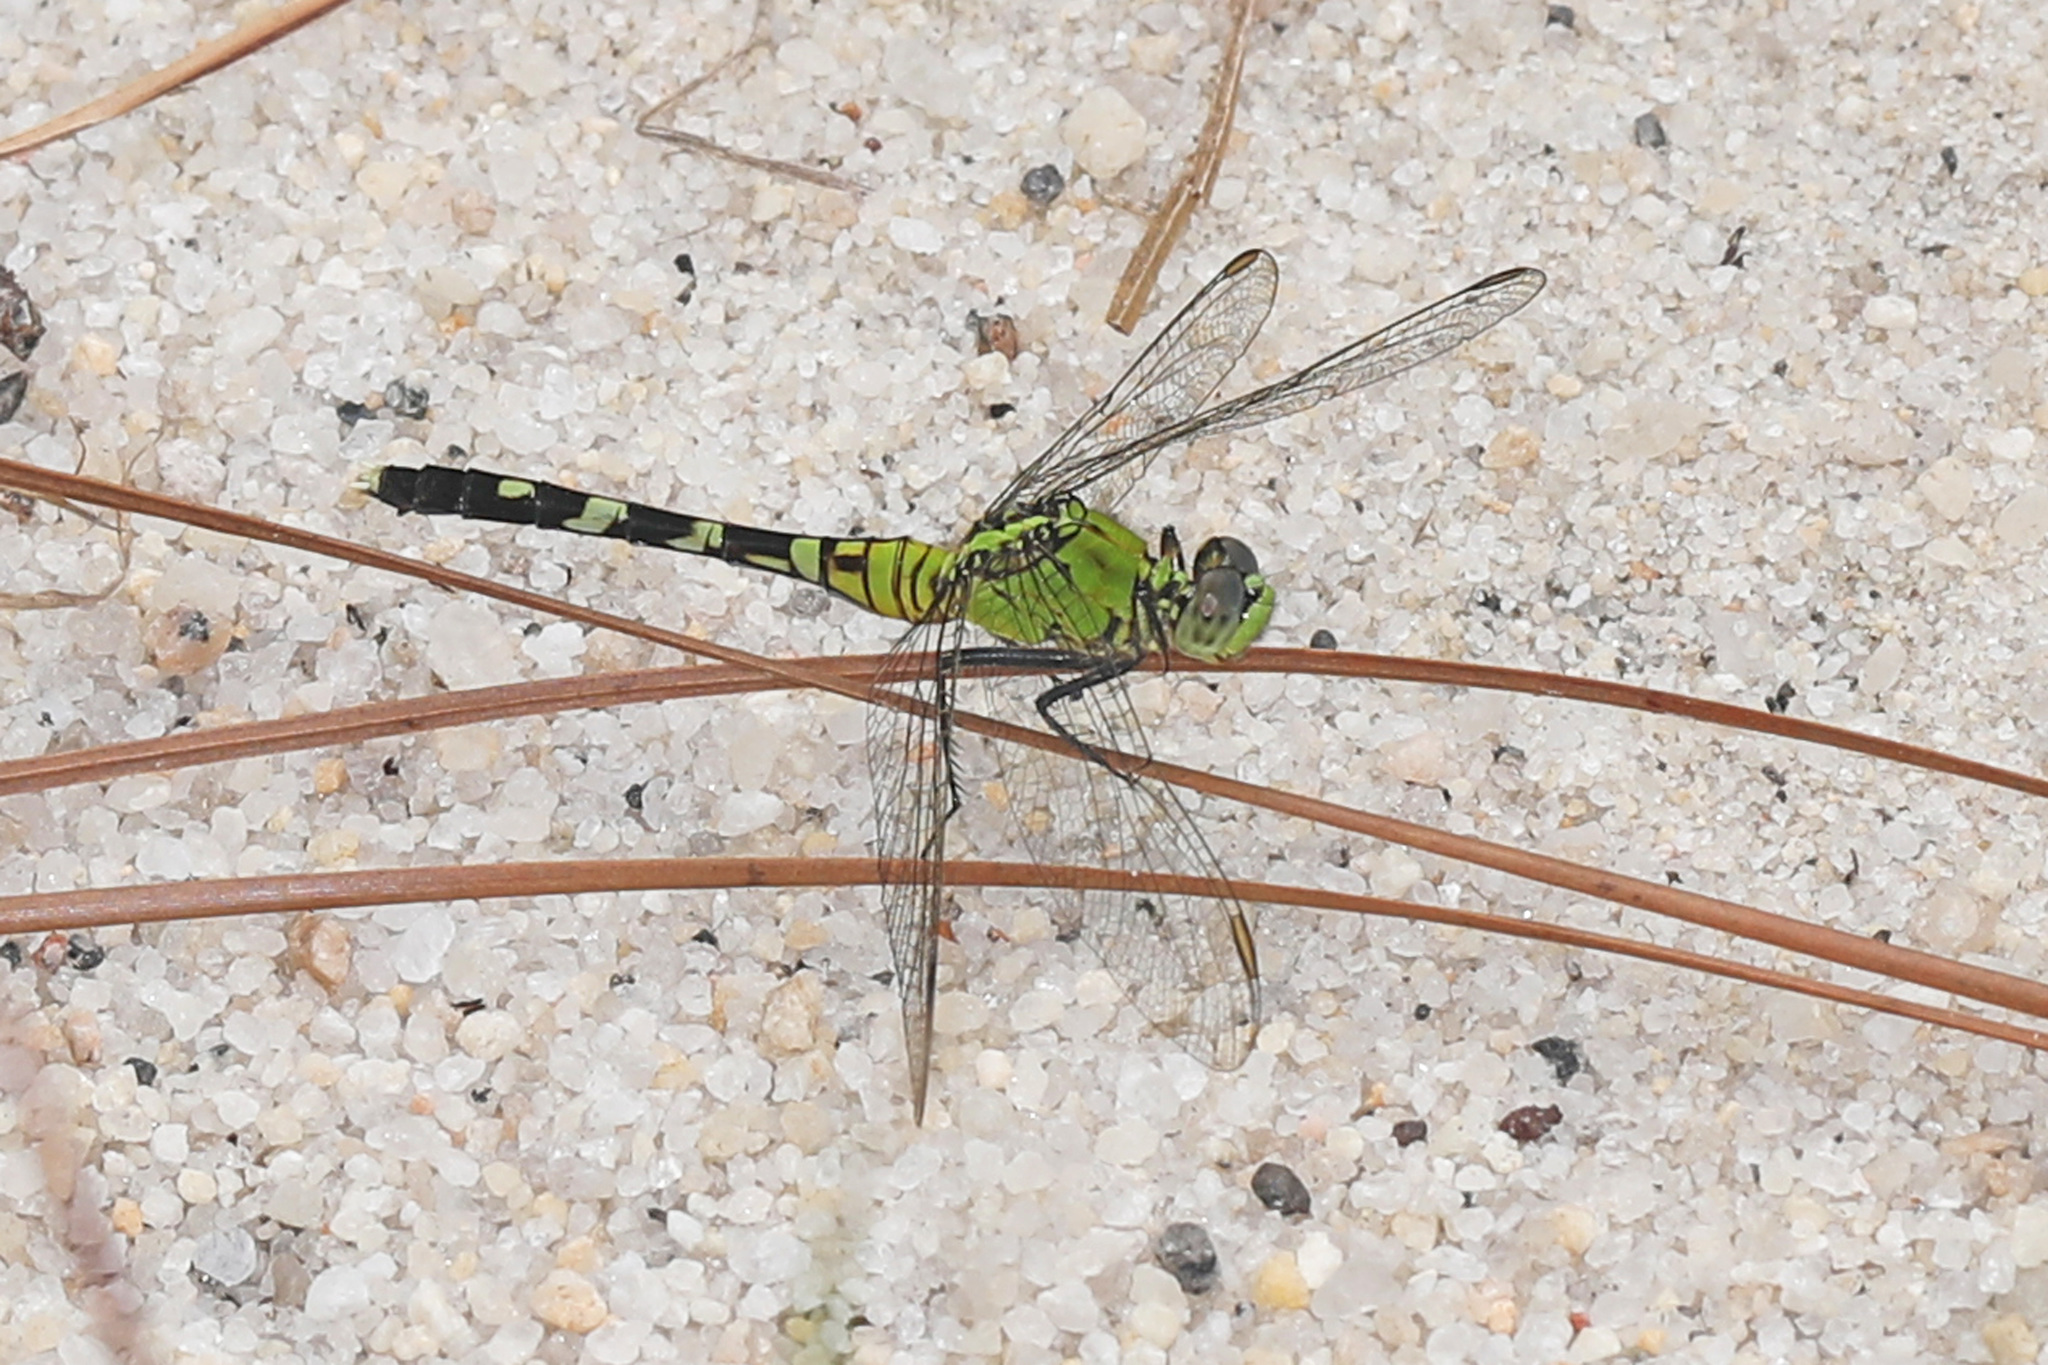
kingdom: Animalia
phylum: Arthropoda
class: Insecta
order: Odonata
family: Libellulidae
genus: Erythemis
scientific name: Erythemis simplicicollis
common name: Eastern pondhawk
